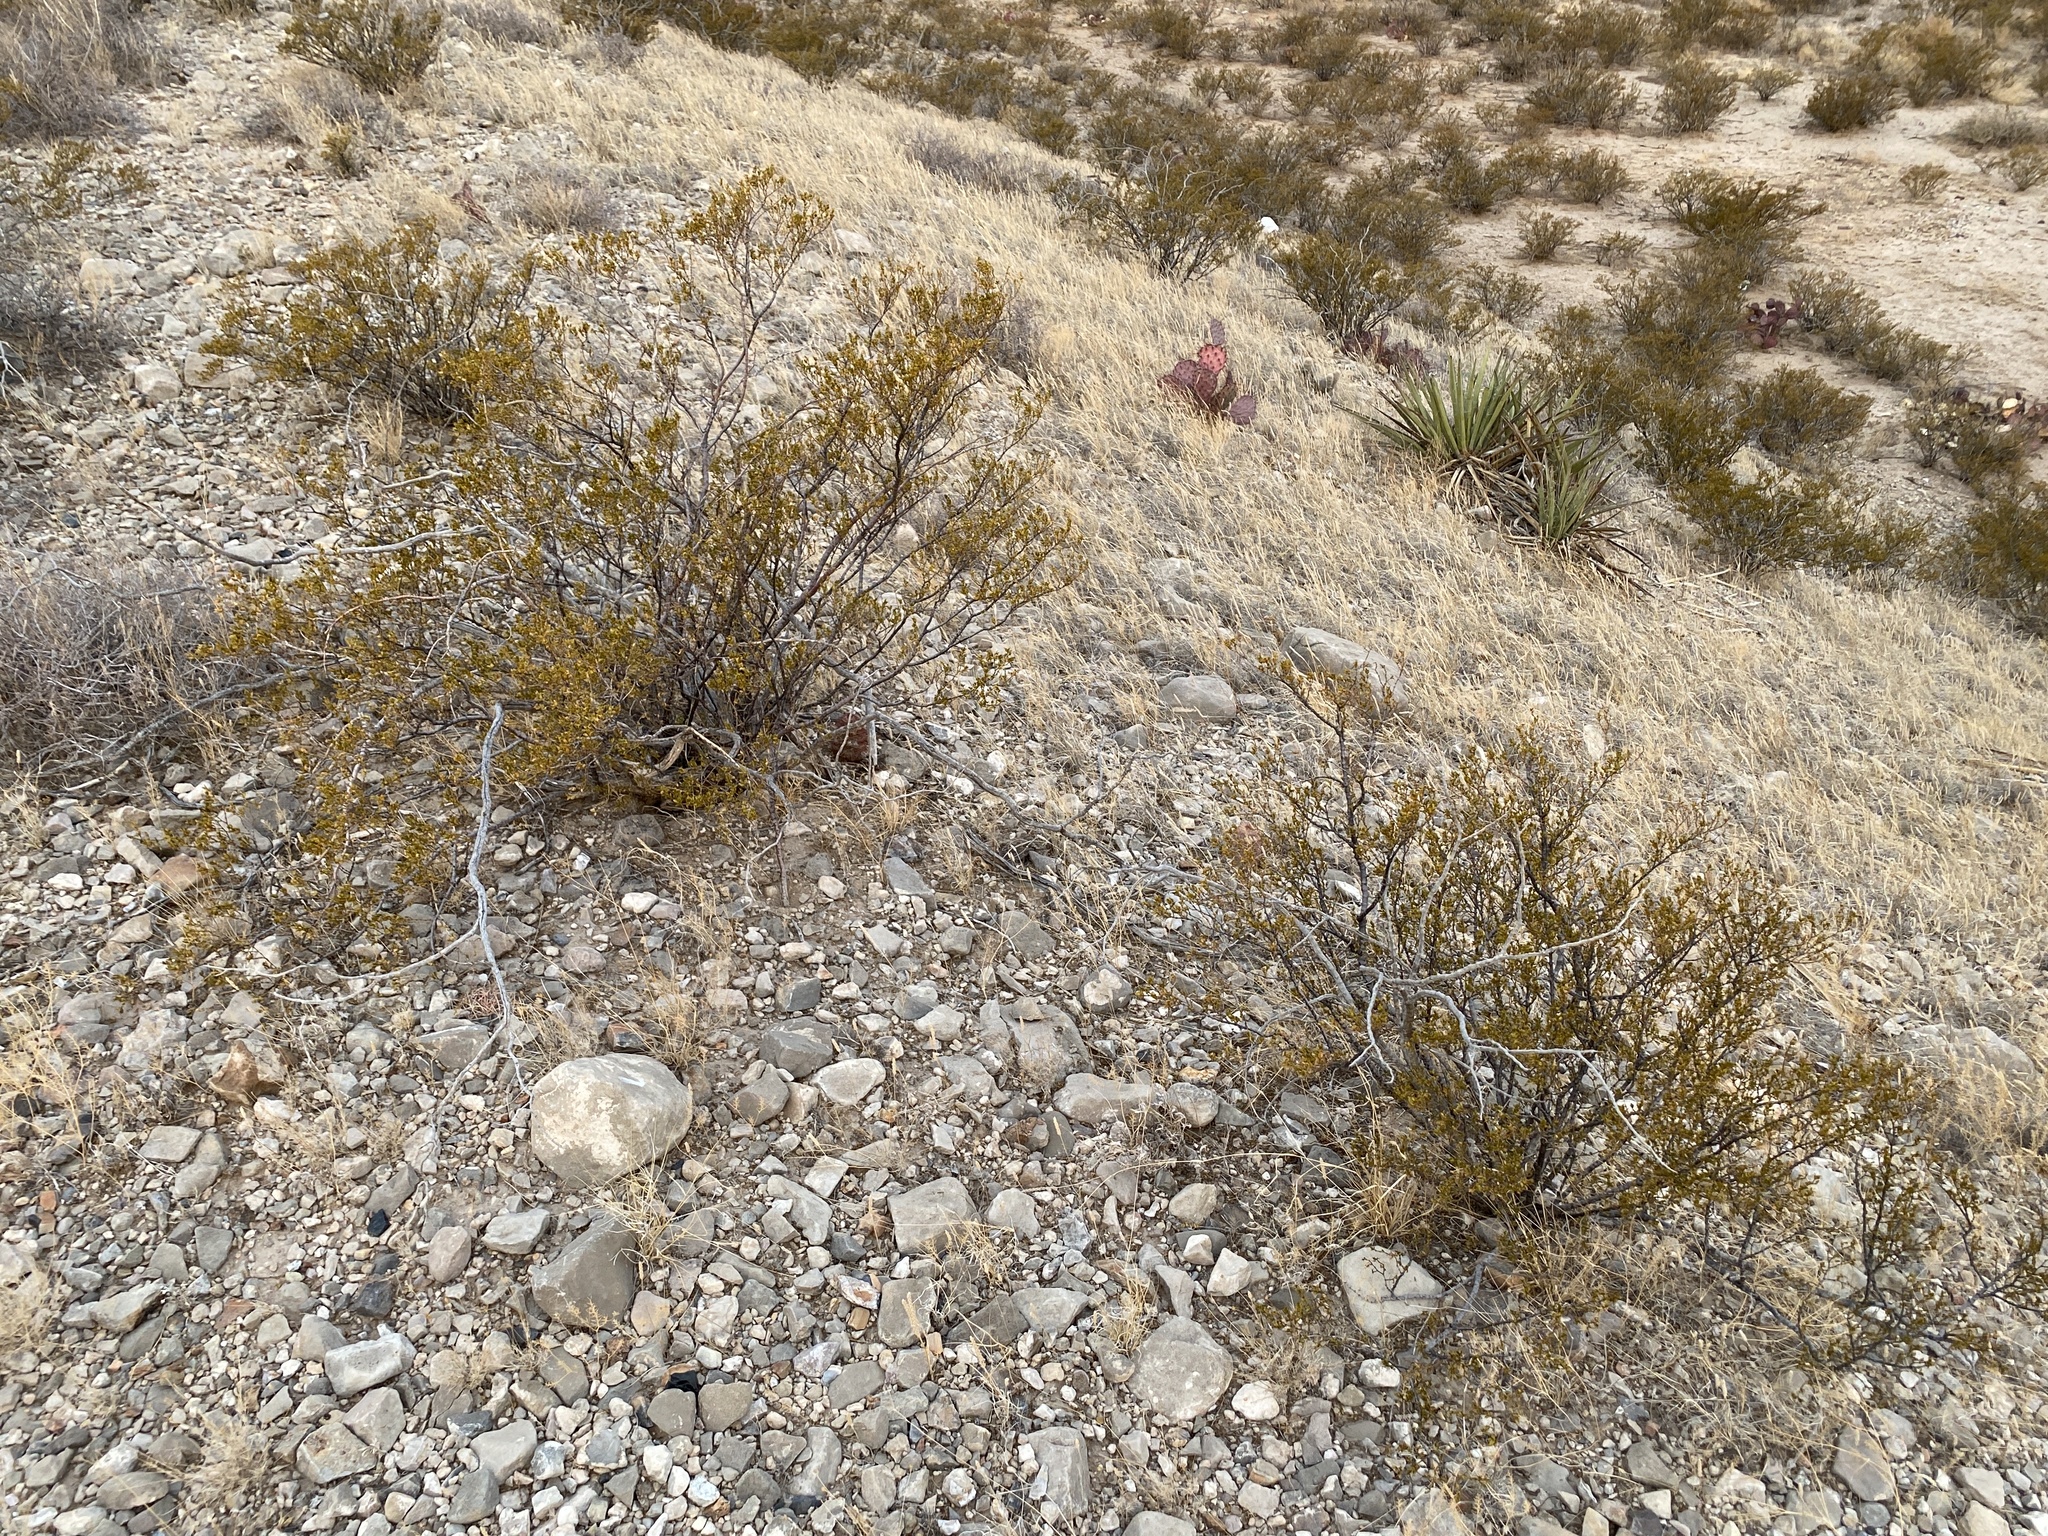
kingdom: Plantae
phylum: Tracheophyta
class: Magnoliopsida
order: Zygophyllales
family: Zygophyllaceae
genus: Larrea
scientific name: Larrea tridentata
